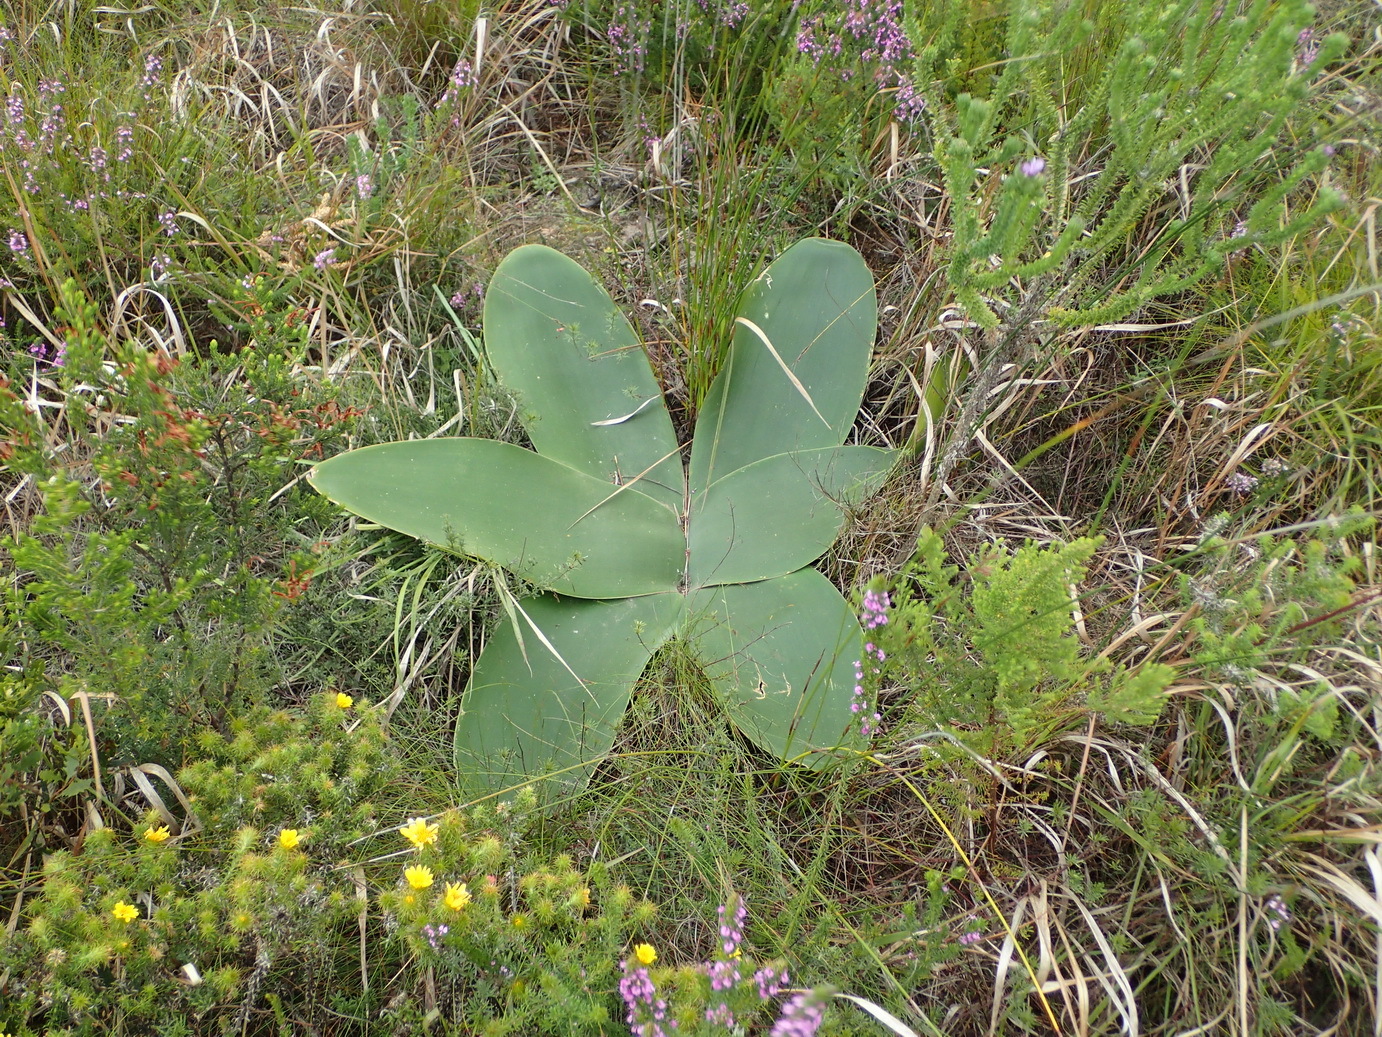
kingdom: Plantae
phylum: Tracheophyta
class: Liliopsida
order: Asparagales
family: Amaryllidaceae
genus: Brunsvigia
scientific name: Brunsvigia orientalis
